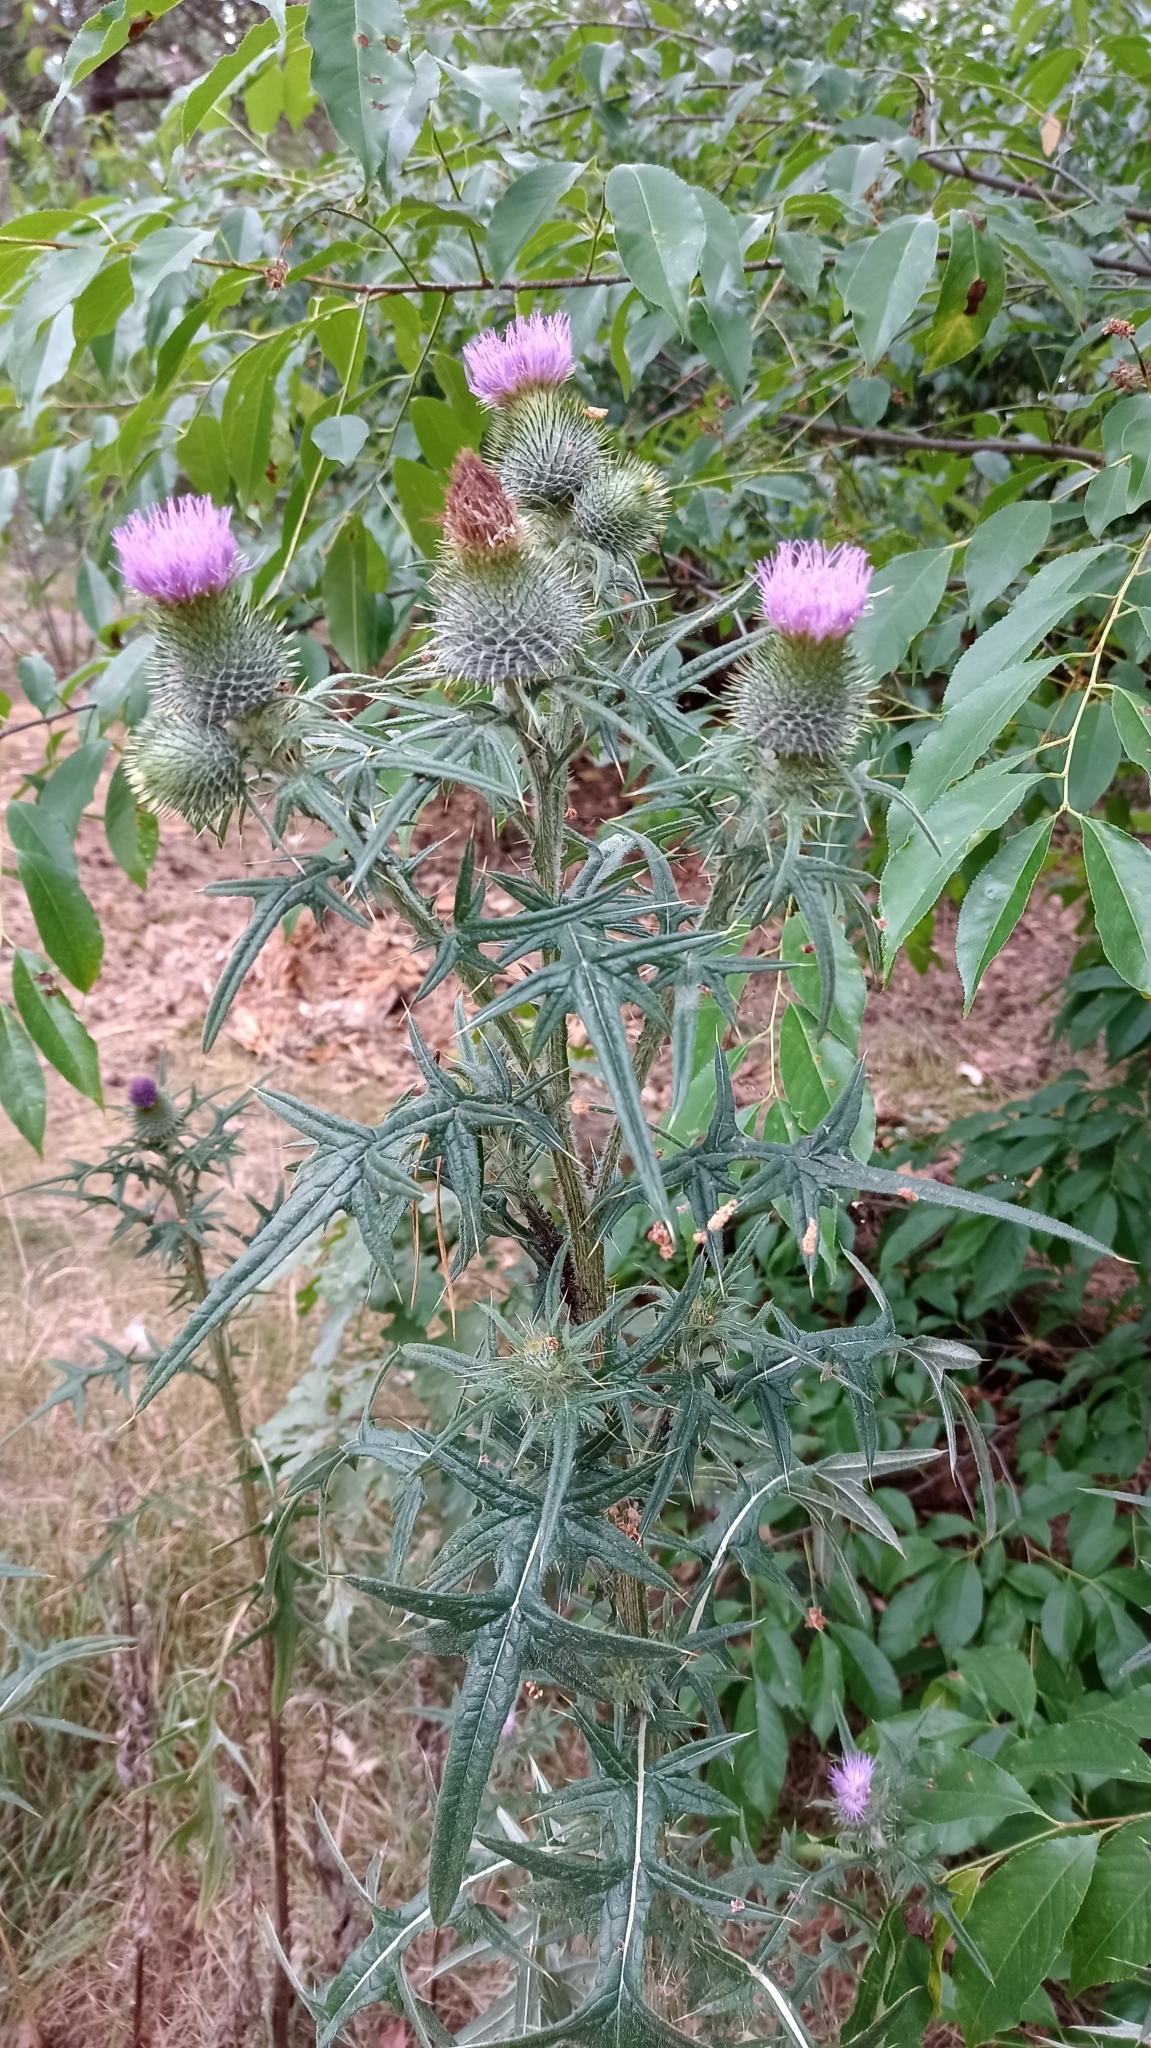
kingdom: Plantae
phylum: Tracheophyta
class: Magnoliopsida
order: Asterales
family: Asteraceae
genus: Cirsium
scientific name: Cirsium vulgare
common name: Bull thistle
